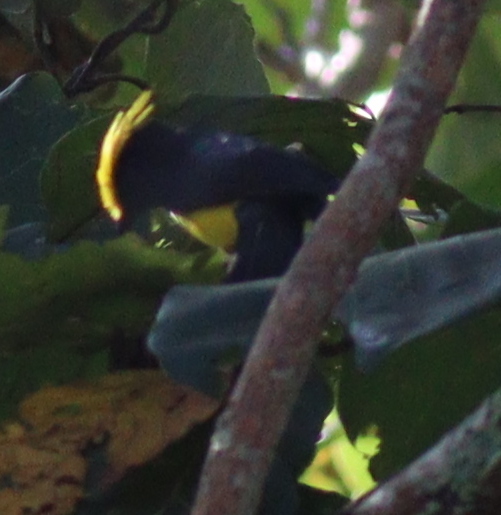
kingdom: Animalia
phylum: Chordata
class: Aves
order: Passeriformes
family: Paridae
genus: Melanochlora
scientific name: Melanochlora sultanea
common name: Sultan tit
